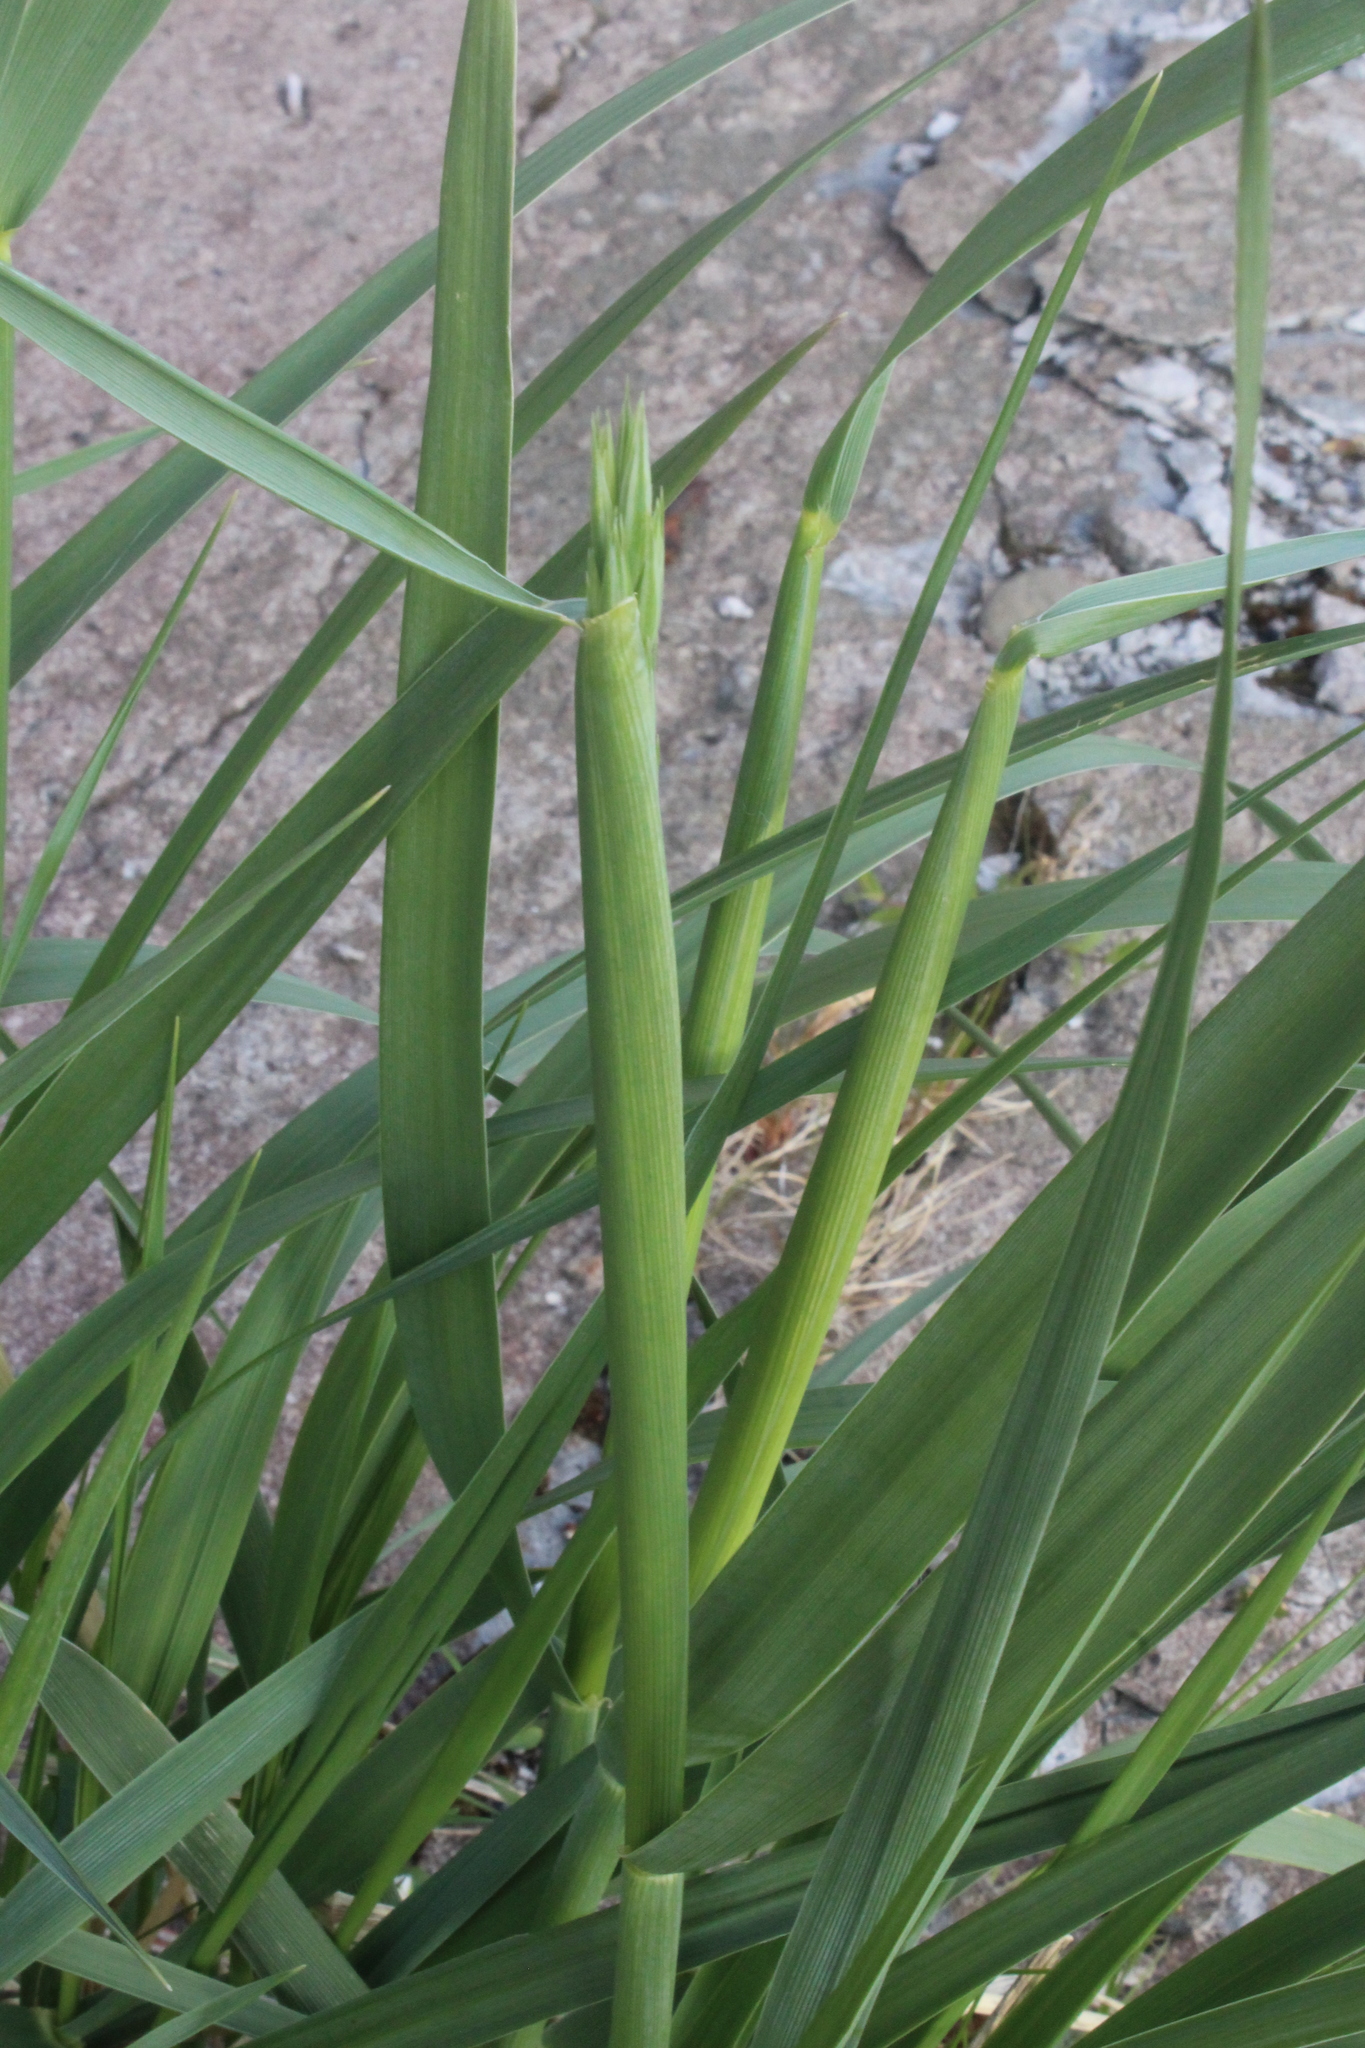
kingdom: Plantae
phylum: Tracheophyta
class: Liliopsida
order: Poales
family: Poaceae
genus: Leymus
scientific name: Leymus arenarius
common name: Lyme-grass
